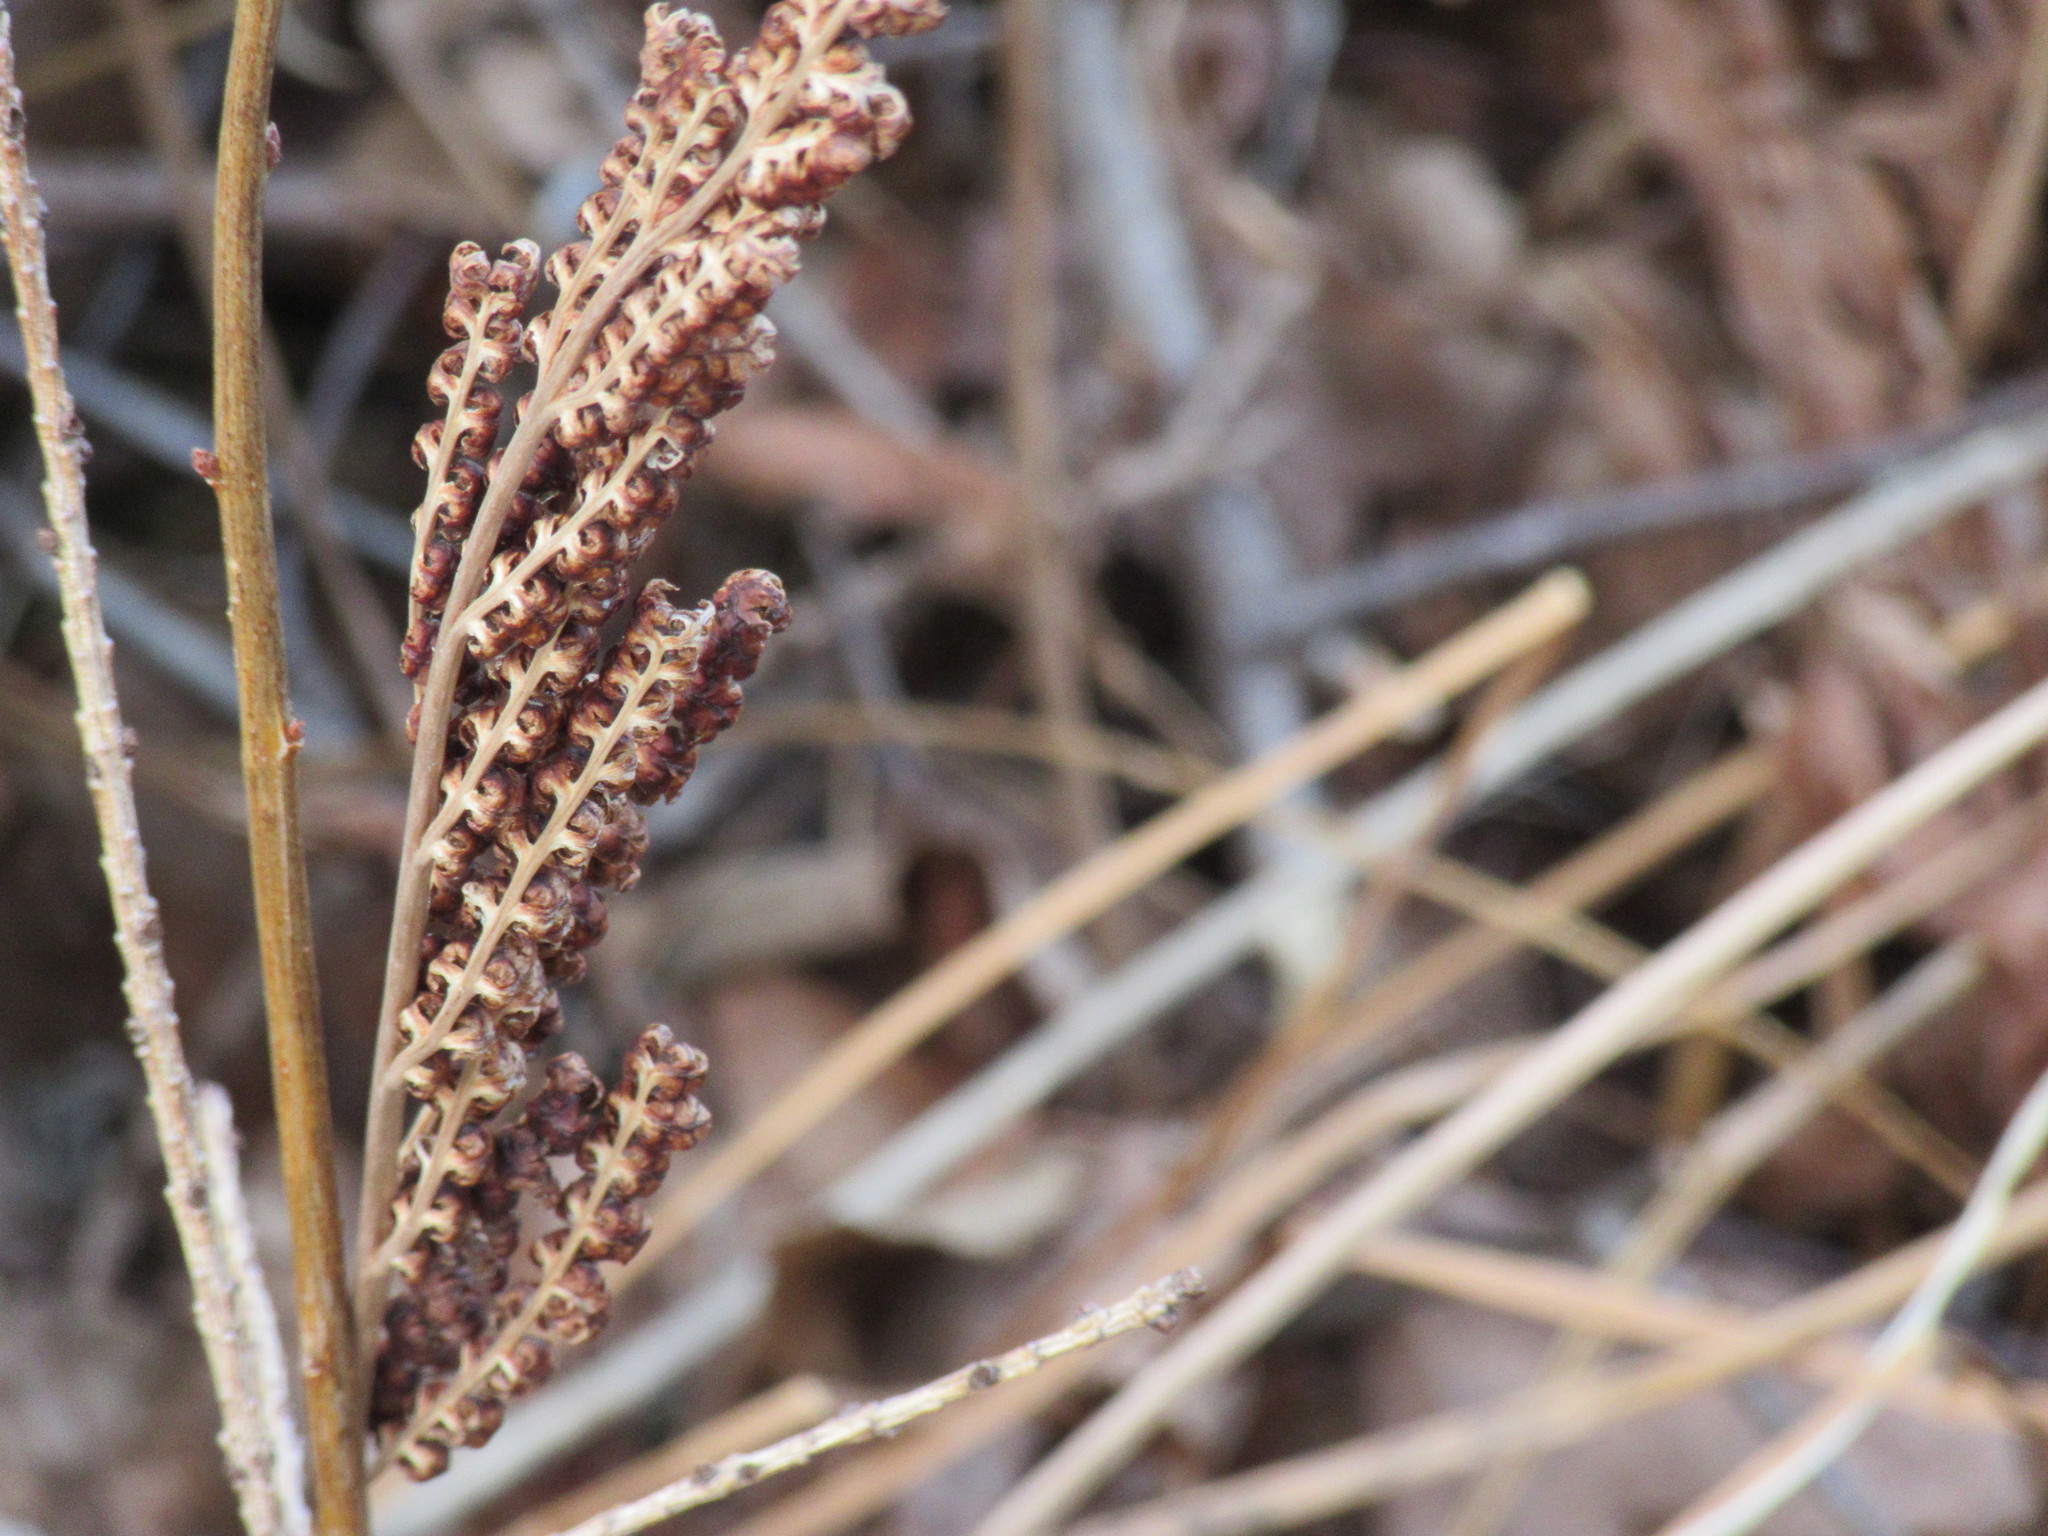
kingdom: Plantae
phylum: Tracheophyta
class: Polypodiopsida
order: Polypodiales
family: Onocleaceae
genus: Onoclea
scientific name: Onoclea sensibilis
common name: Sensitive fern
